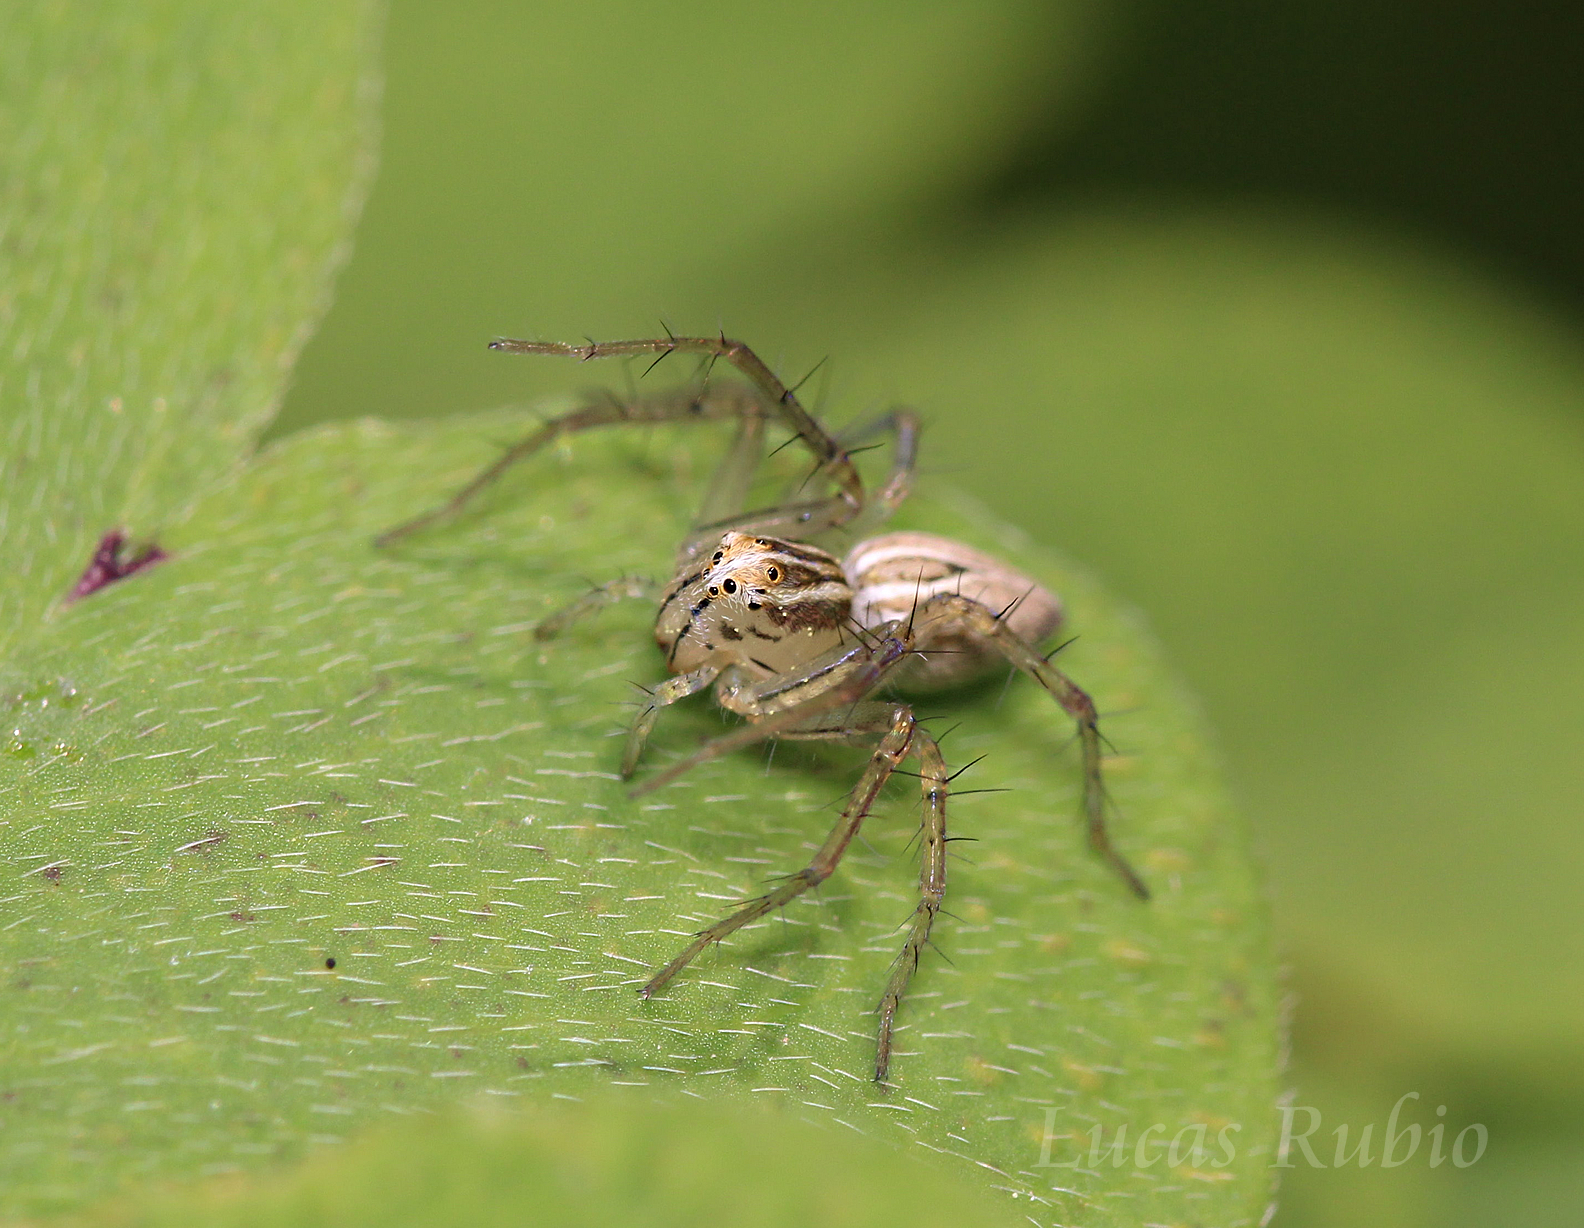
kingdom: Animalia
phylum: Arthropoda
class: Arachnida
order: Araneae
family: Oxyopidae
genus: Oxyopes
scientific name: Oxyopes salticus
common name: Lynx spiders
